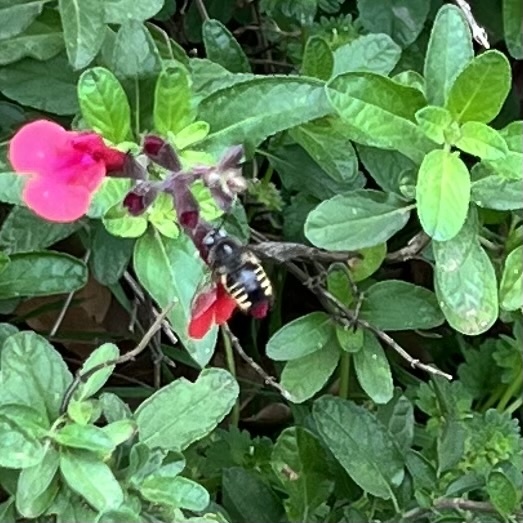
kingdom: Animalia
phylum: Arthropoda
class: Insecta
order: Hymenoptera
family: Apidae
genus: Xylocopa
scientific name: Xylocopa tabaniformis
